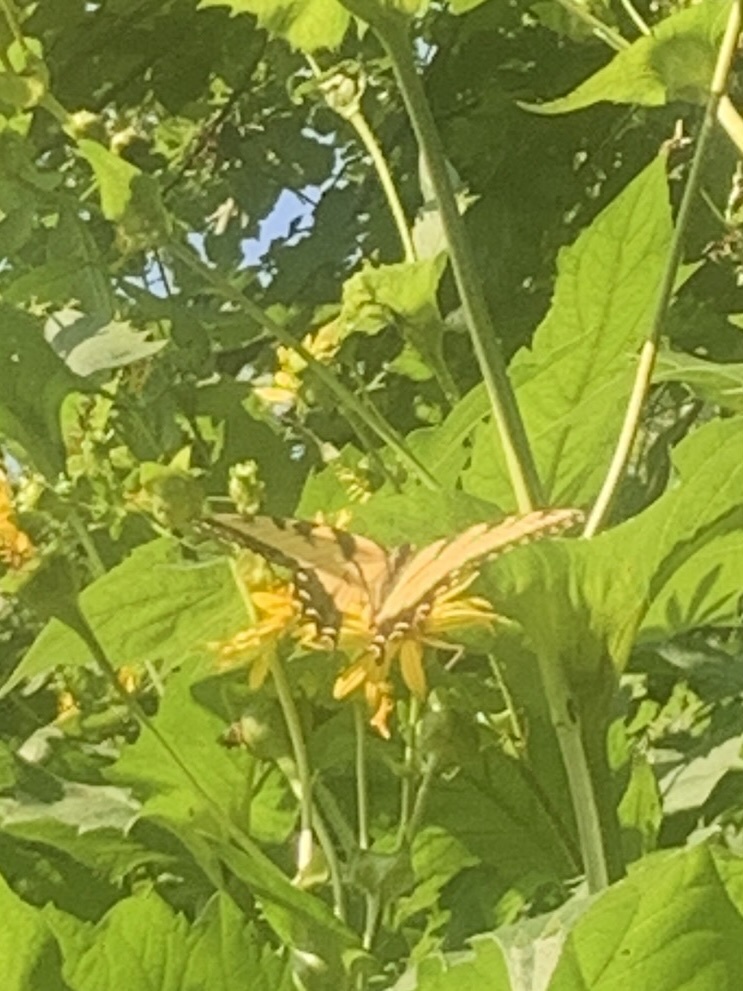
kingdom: Animalia
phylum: Arthropoda
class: Insecta
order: Lepidoptera
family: Papilionidae
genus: Papilio
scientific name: Papilio glaucus
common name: Tiger swallowtail
